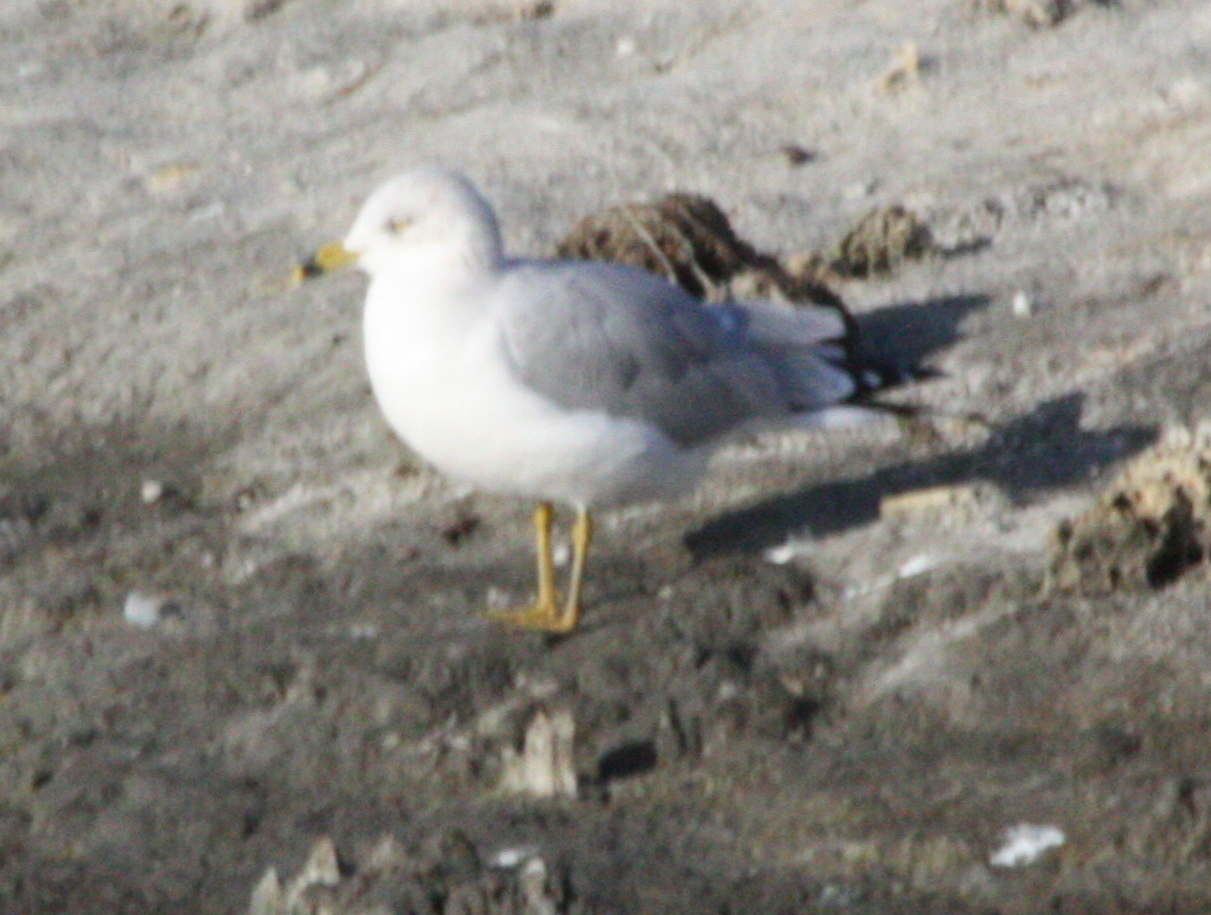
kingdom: Animalia
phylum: Chordata
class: Aves
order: Charadriiformes
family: Laridae
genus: Larus
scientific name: Larus delawarensis
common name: Ring-billed gull
